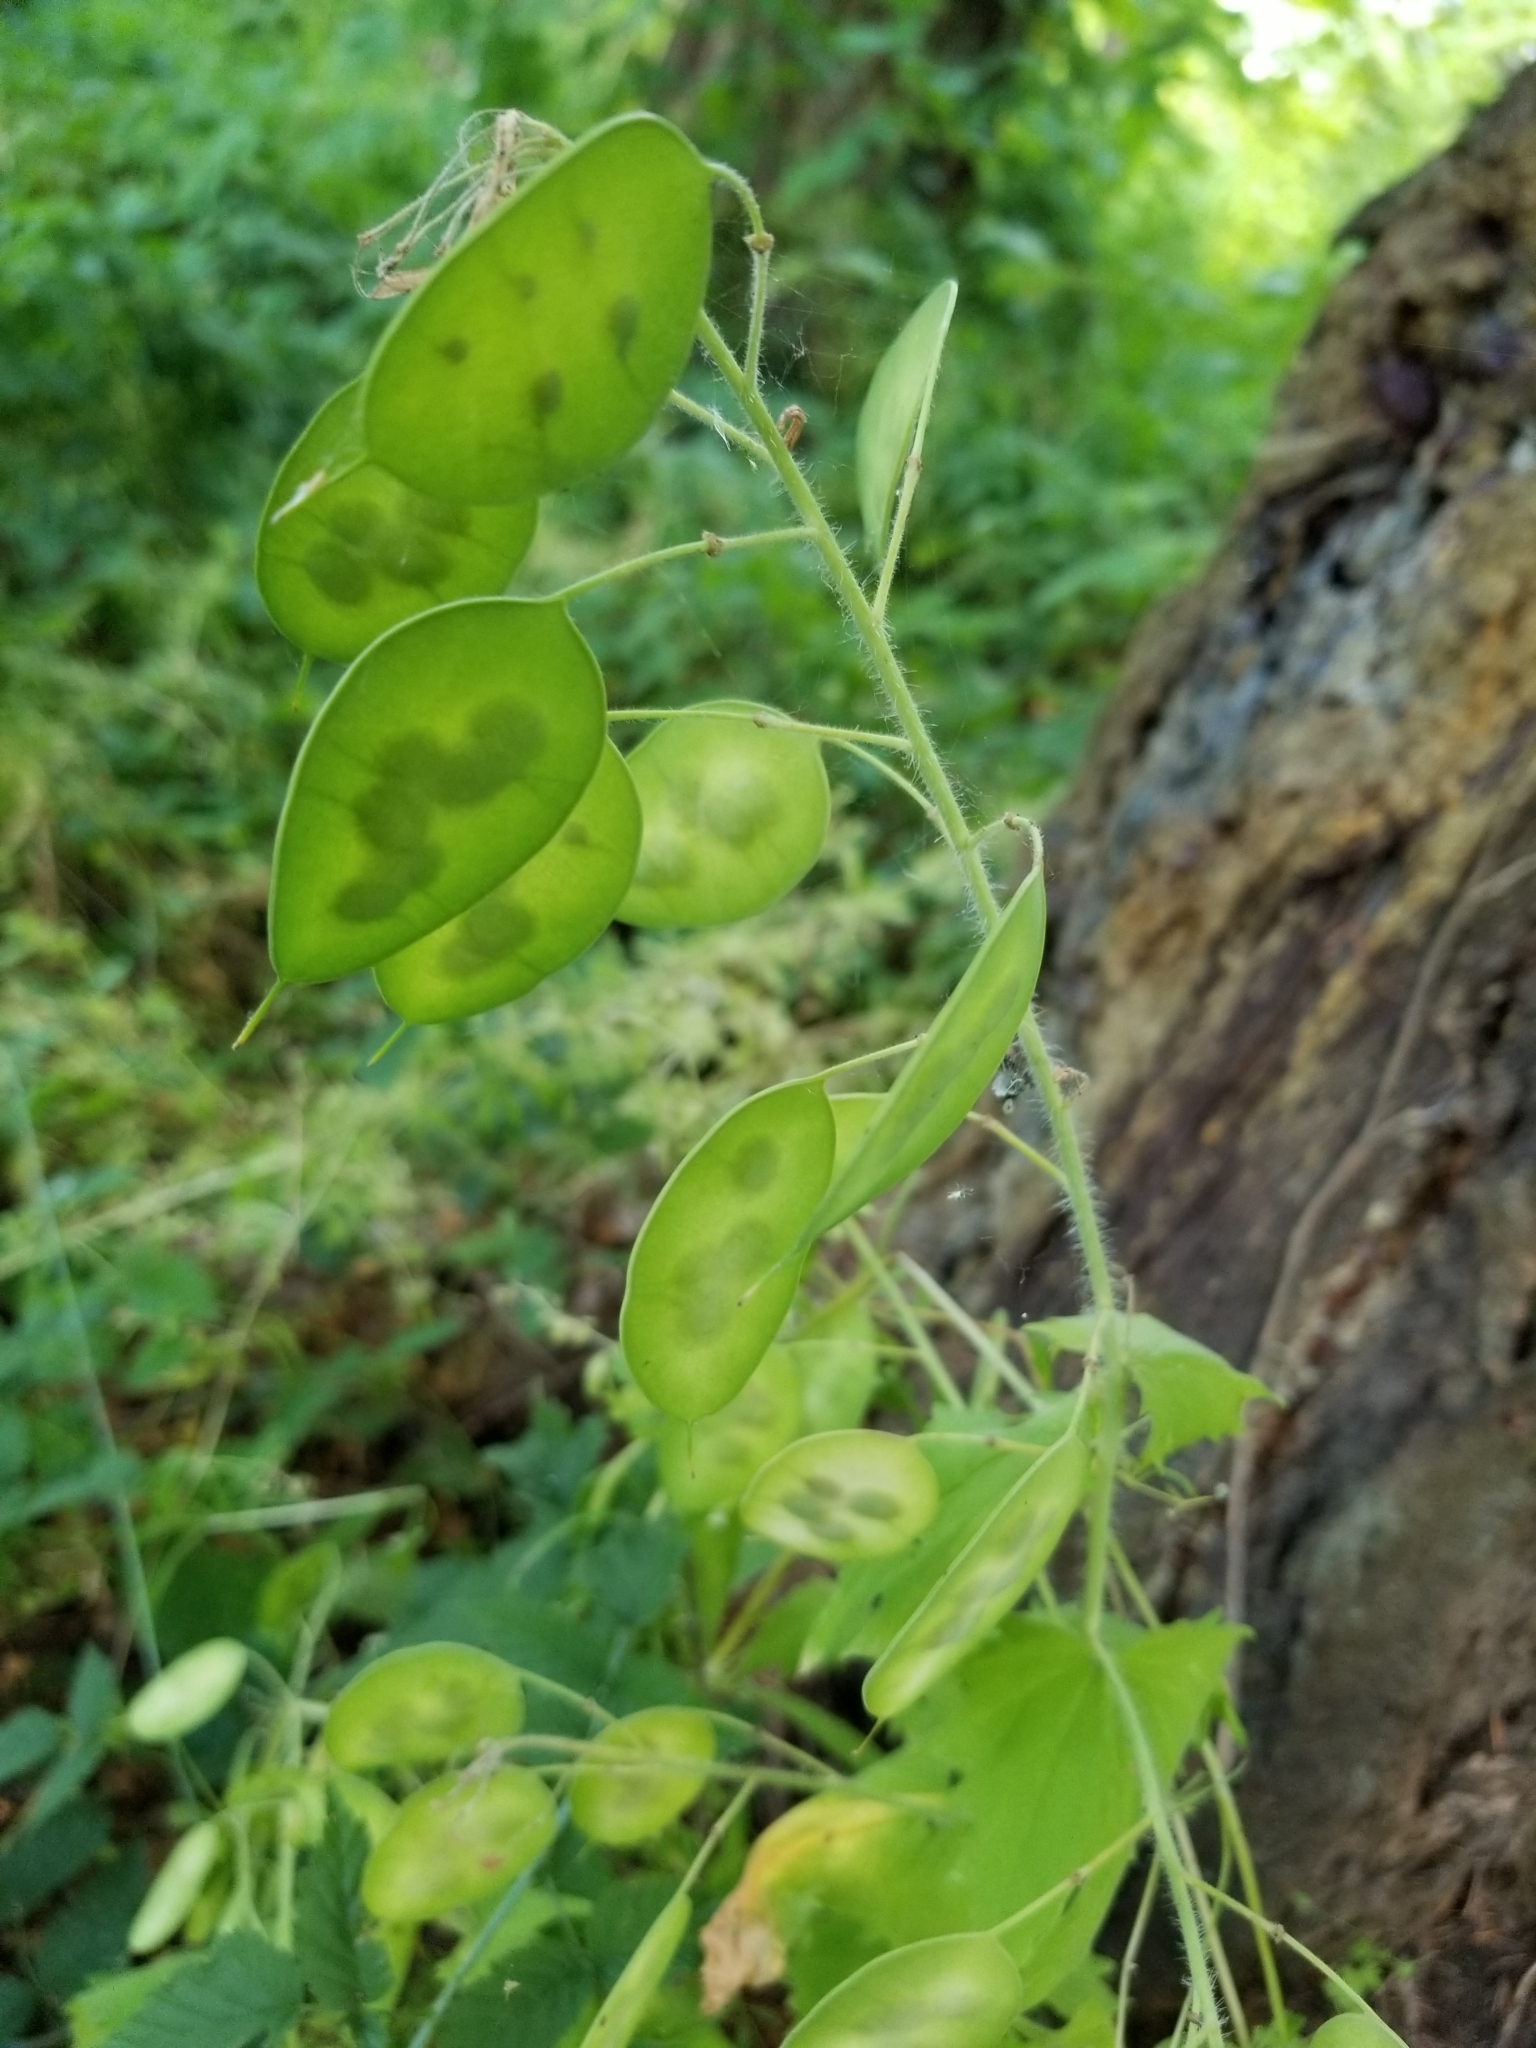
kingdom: Plantae
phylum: Tracheophyta
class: Magnoliopsida
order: Brassicales
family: Brassicaceae
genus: Lunaria
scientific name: Lunaria annua
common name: Honesty
